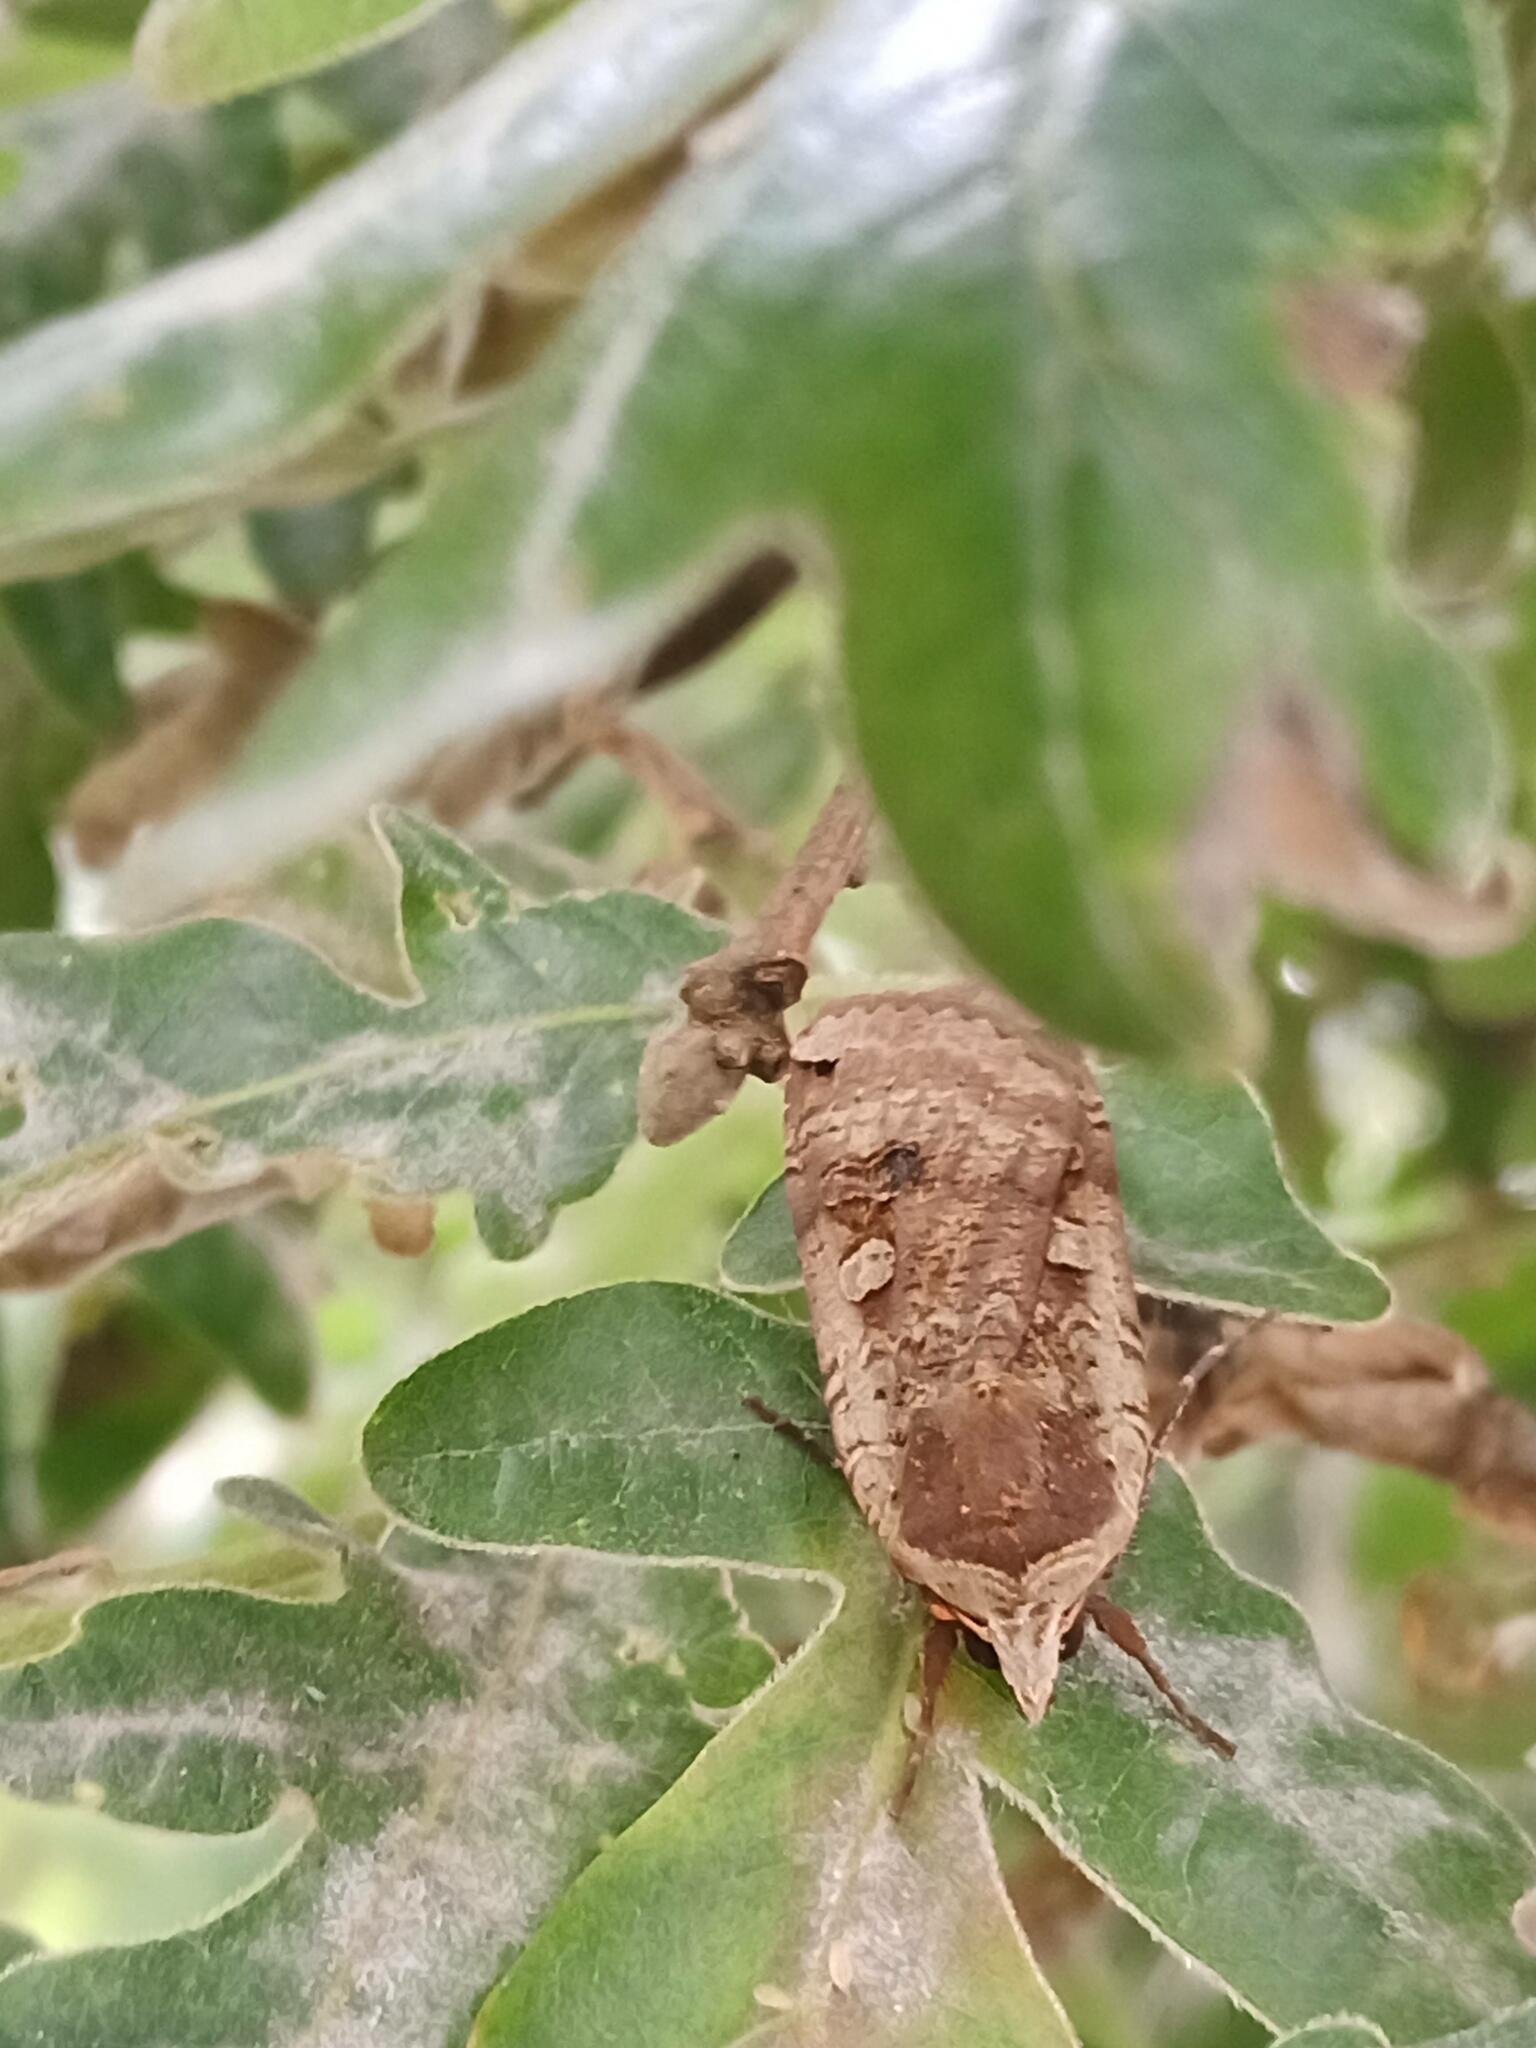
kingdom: Animalia
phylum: Arthropoda
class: Insecta
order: Lepidoptera
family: Noctuidae
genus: Noctua
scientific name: Noctua pronuba
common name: Large yellow underwing
